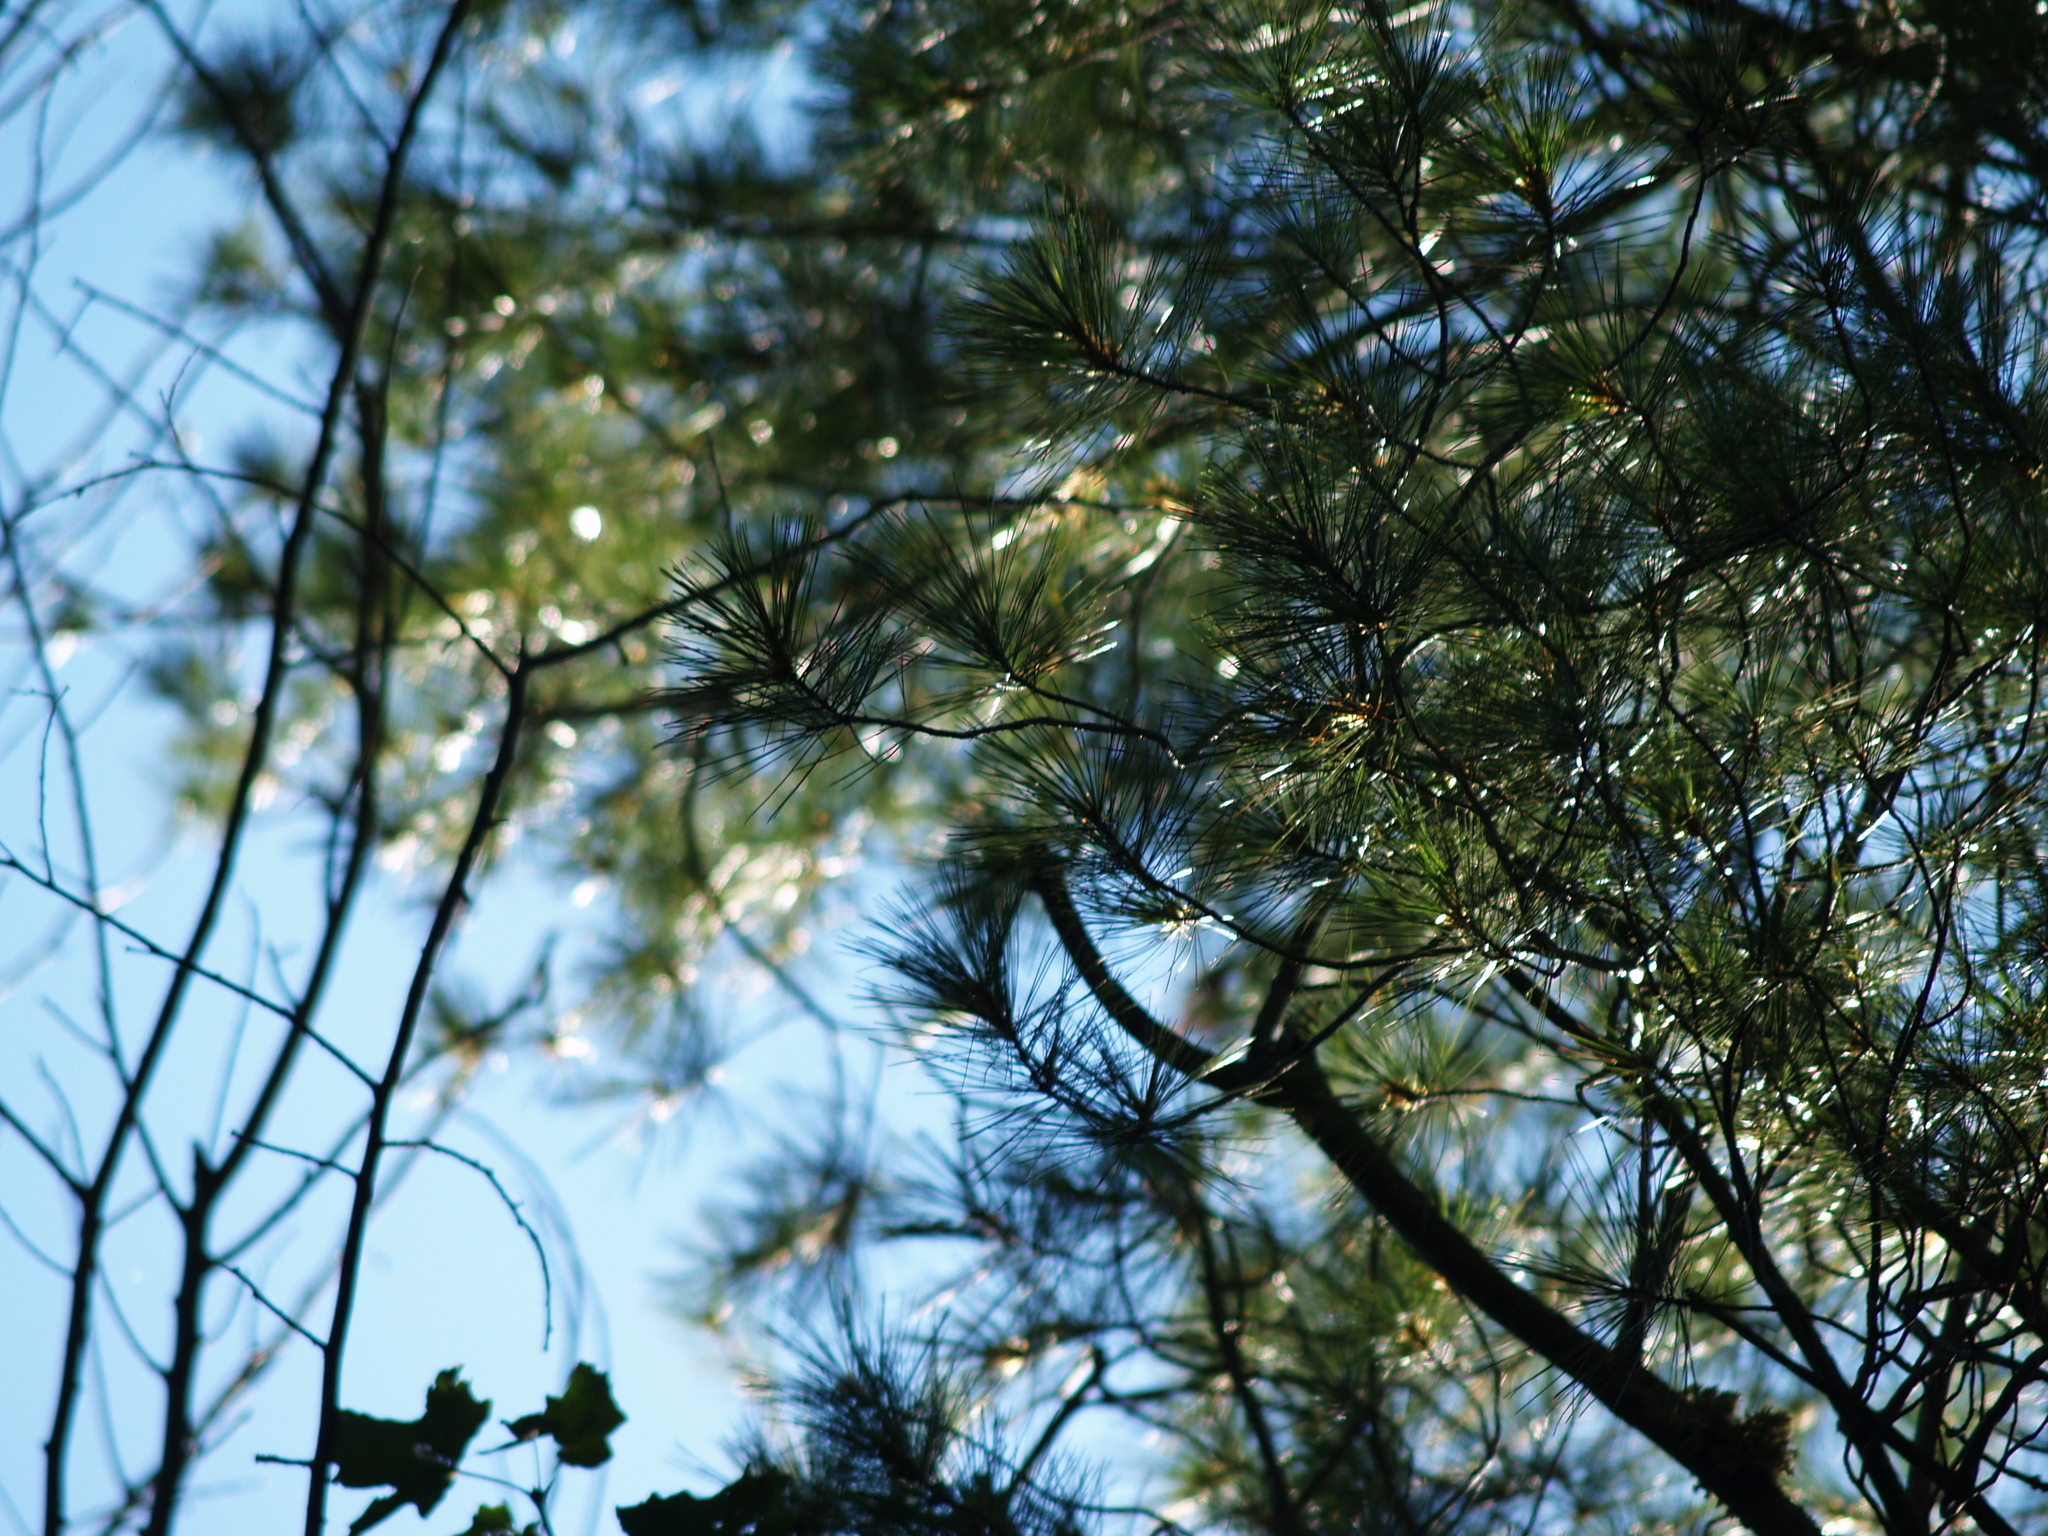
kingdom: Plantae
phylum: Tracheophyta
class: Pinopsida
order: Pinales
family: Pinaceae
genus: Pinus
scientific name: Pinus strobus
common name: Weymouth pine
